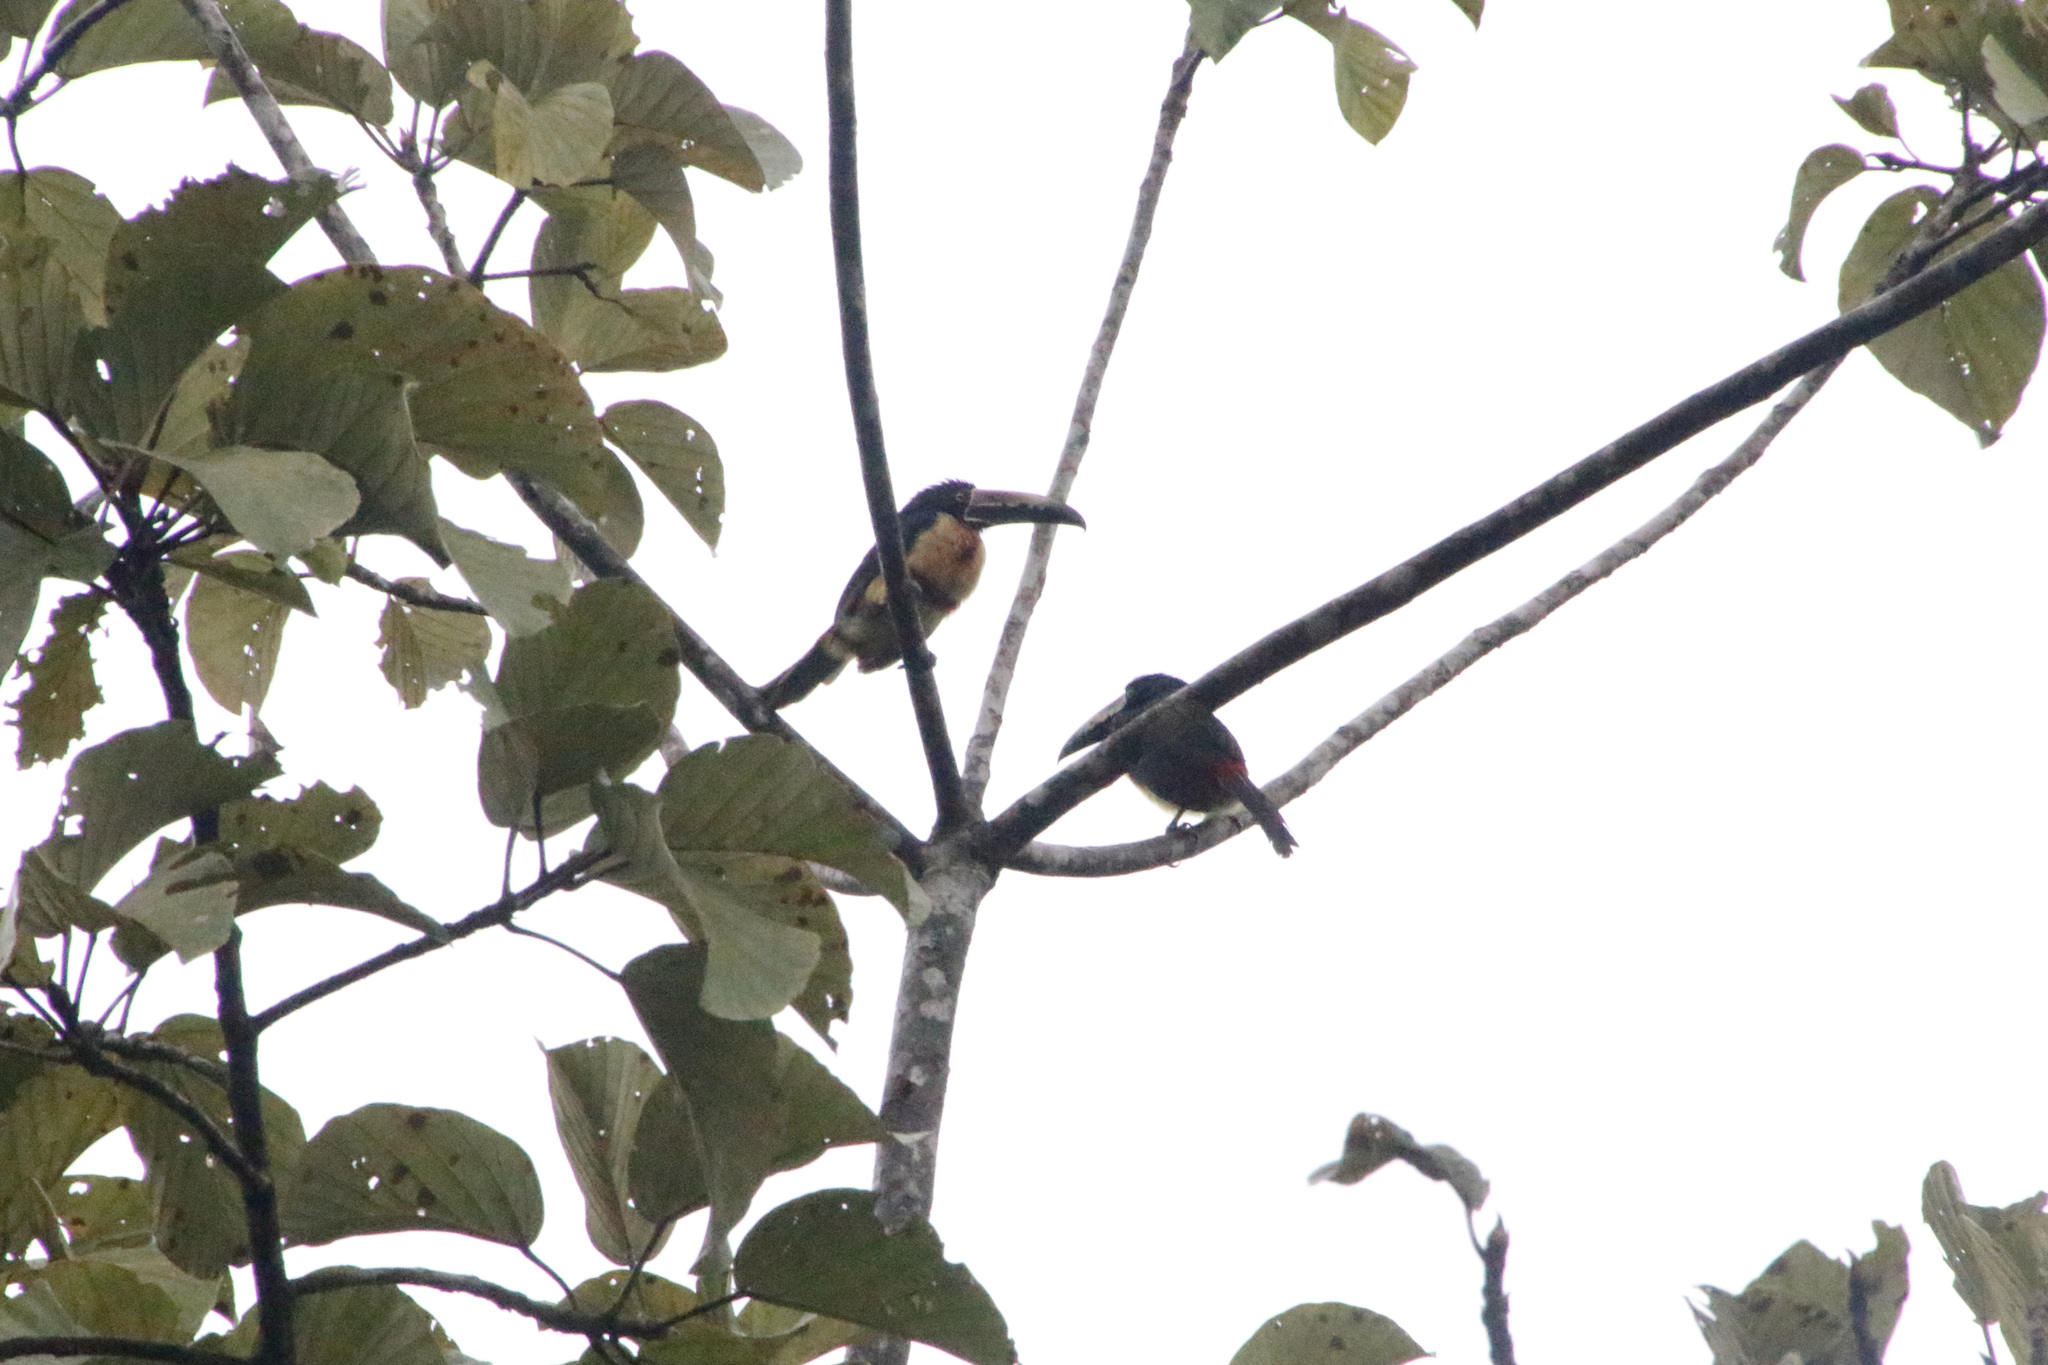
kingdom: Animalia
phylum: Chordata
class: Aves
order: Piciformes
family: Ramphastidae
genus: Pteroglossus
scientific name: Pteroglossus torquatus
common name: Collared aracari
